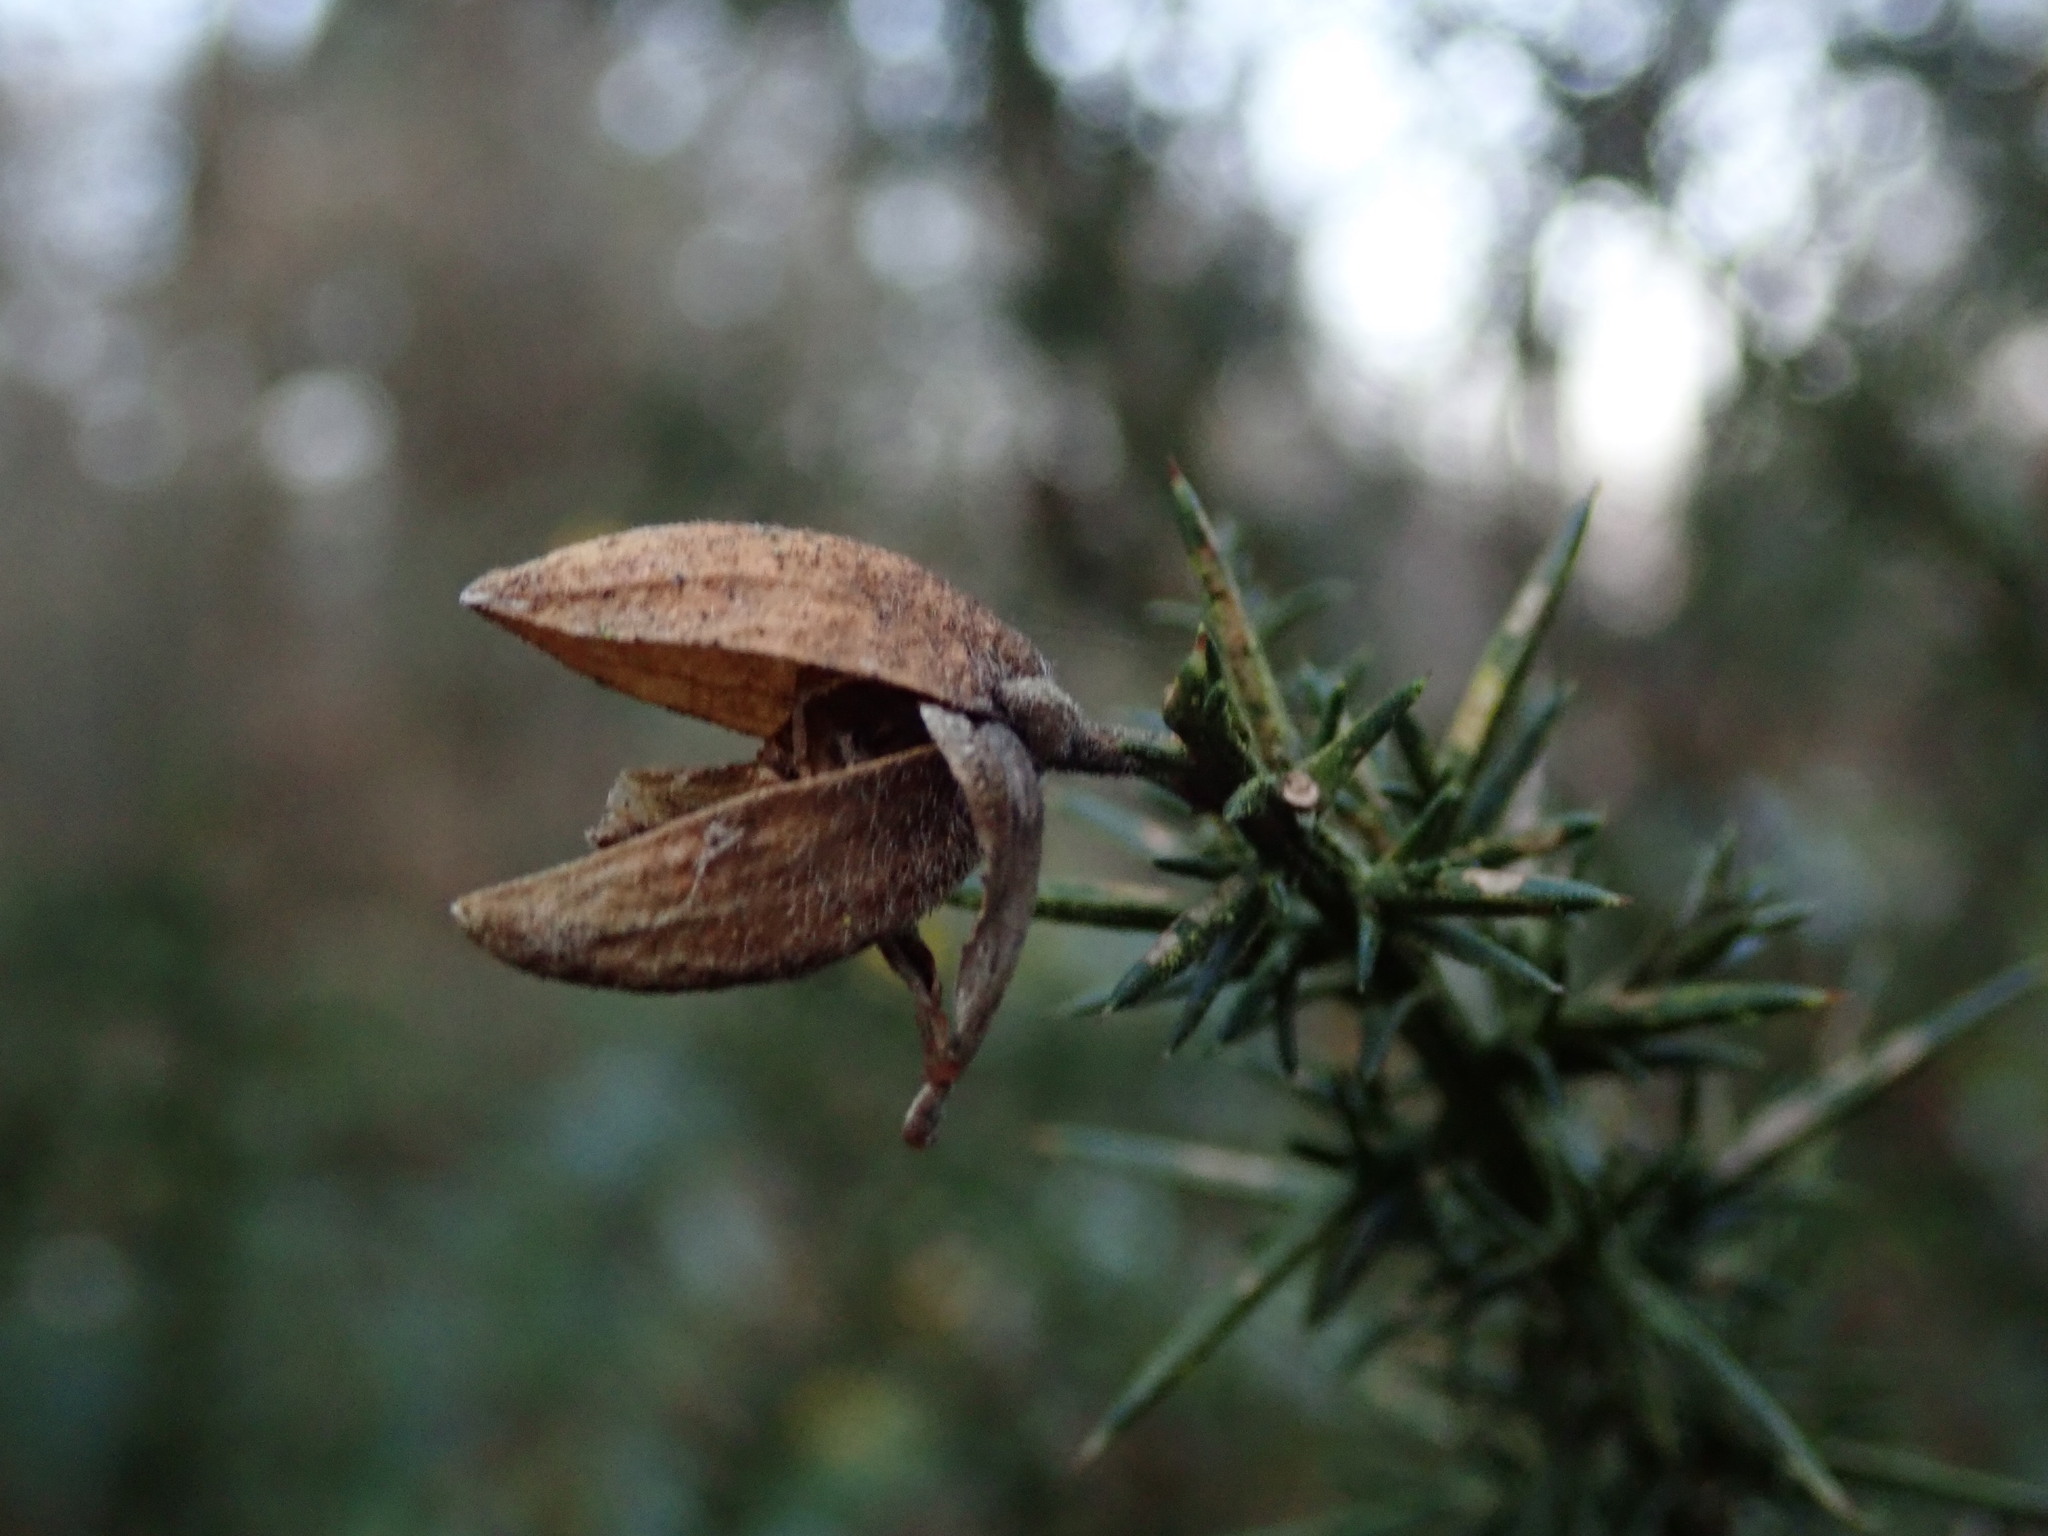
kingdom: Plantae
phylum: Tracheophyta
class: Magnoliopsida
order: Fabales
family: Fabaceae
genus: Ulex
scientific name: Ulex europaeus
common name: Common gorse
